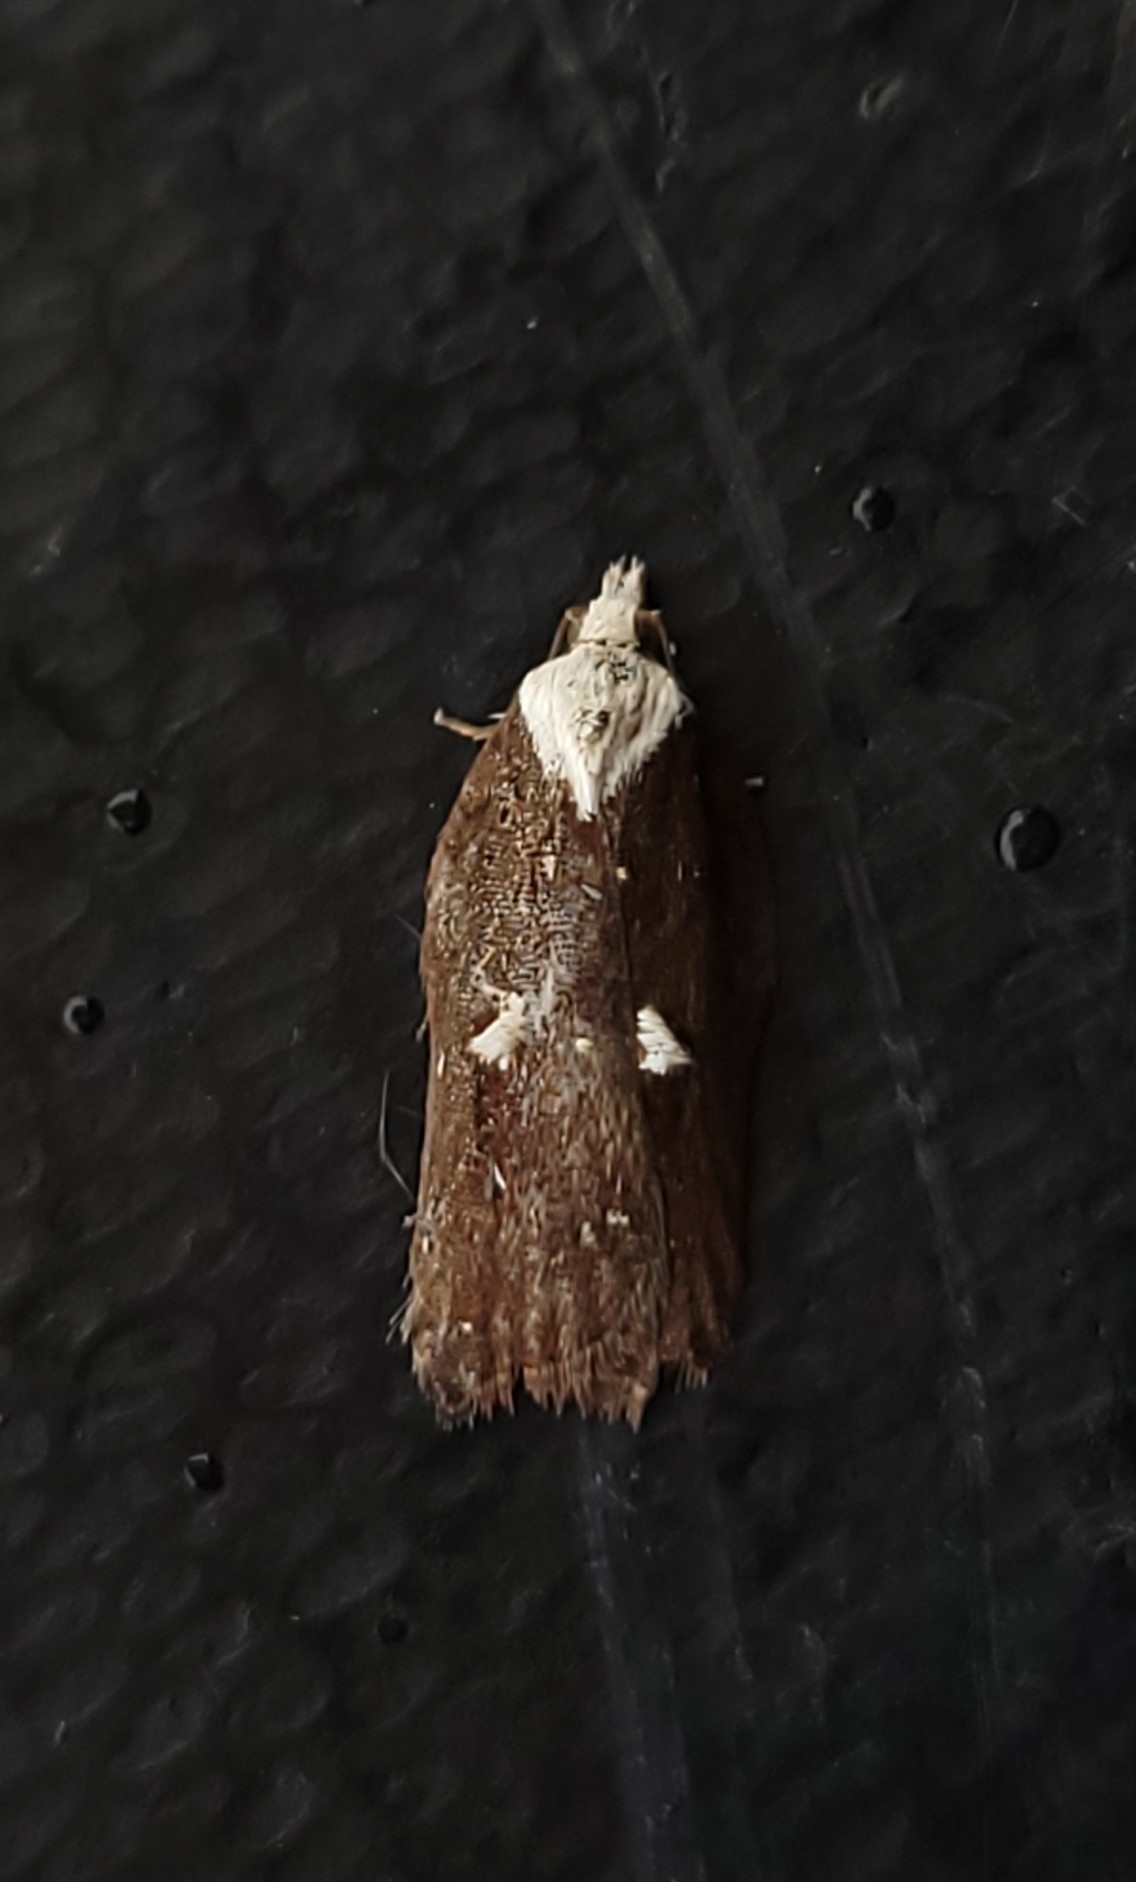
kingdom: Animalia
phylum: Arthropoda
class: Insecta
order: Lepidoptera
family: Tortricidae
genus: Acleris
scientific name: Acleris cristana
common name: Tufted button
